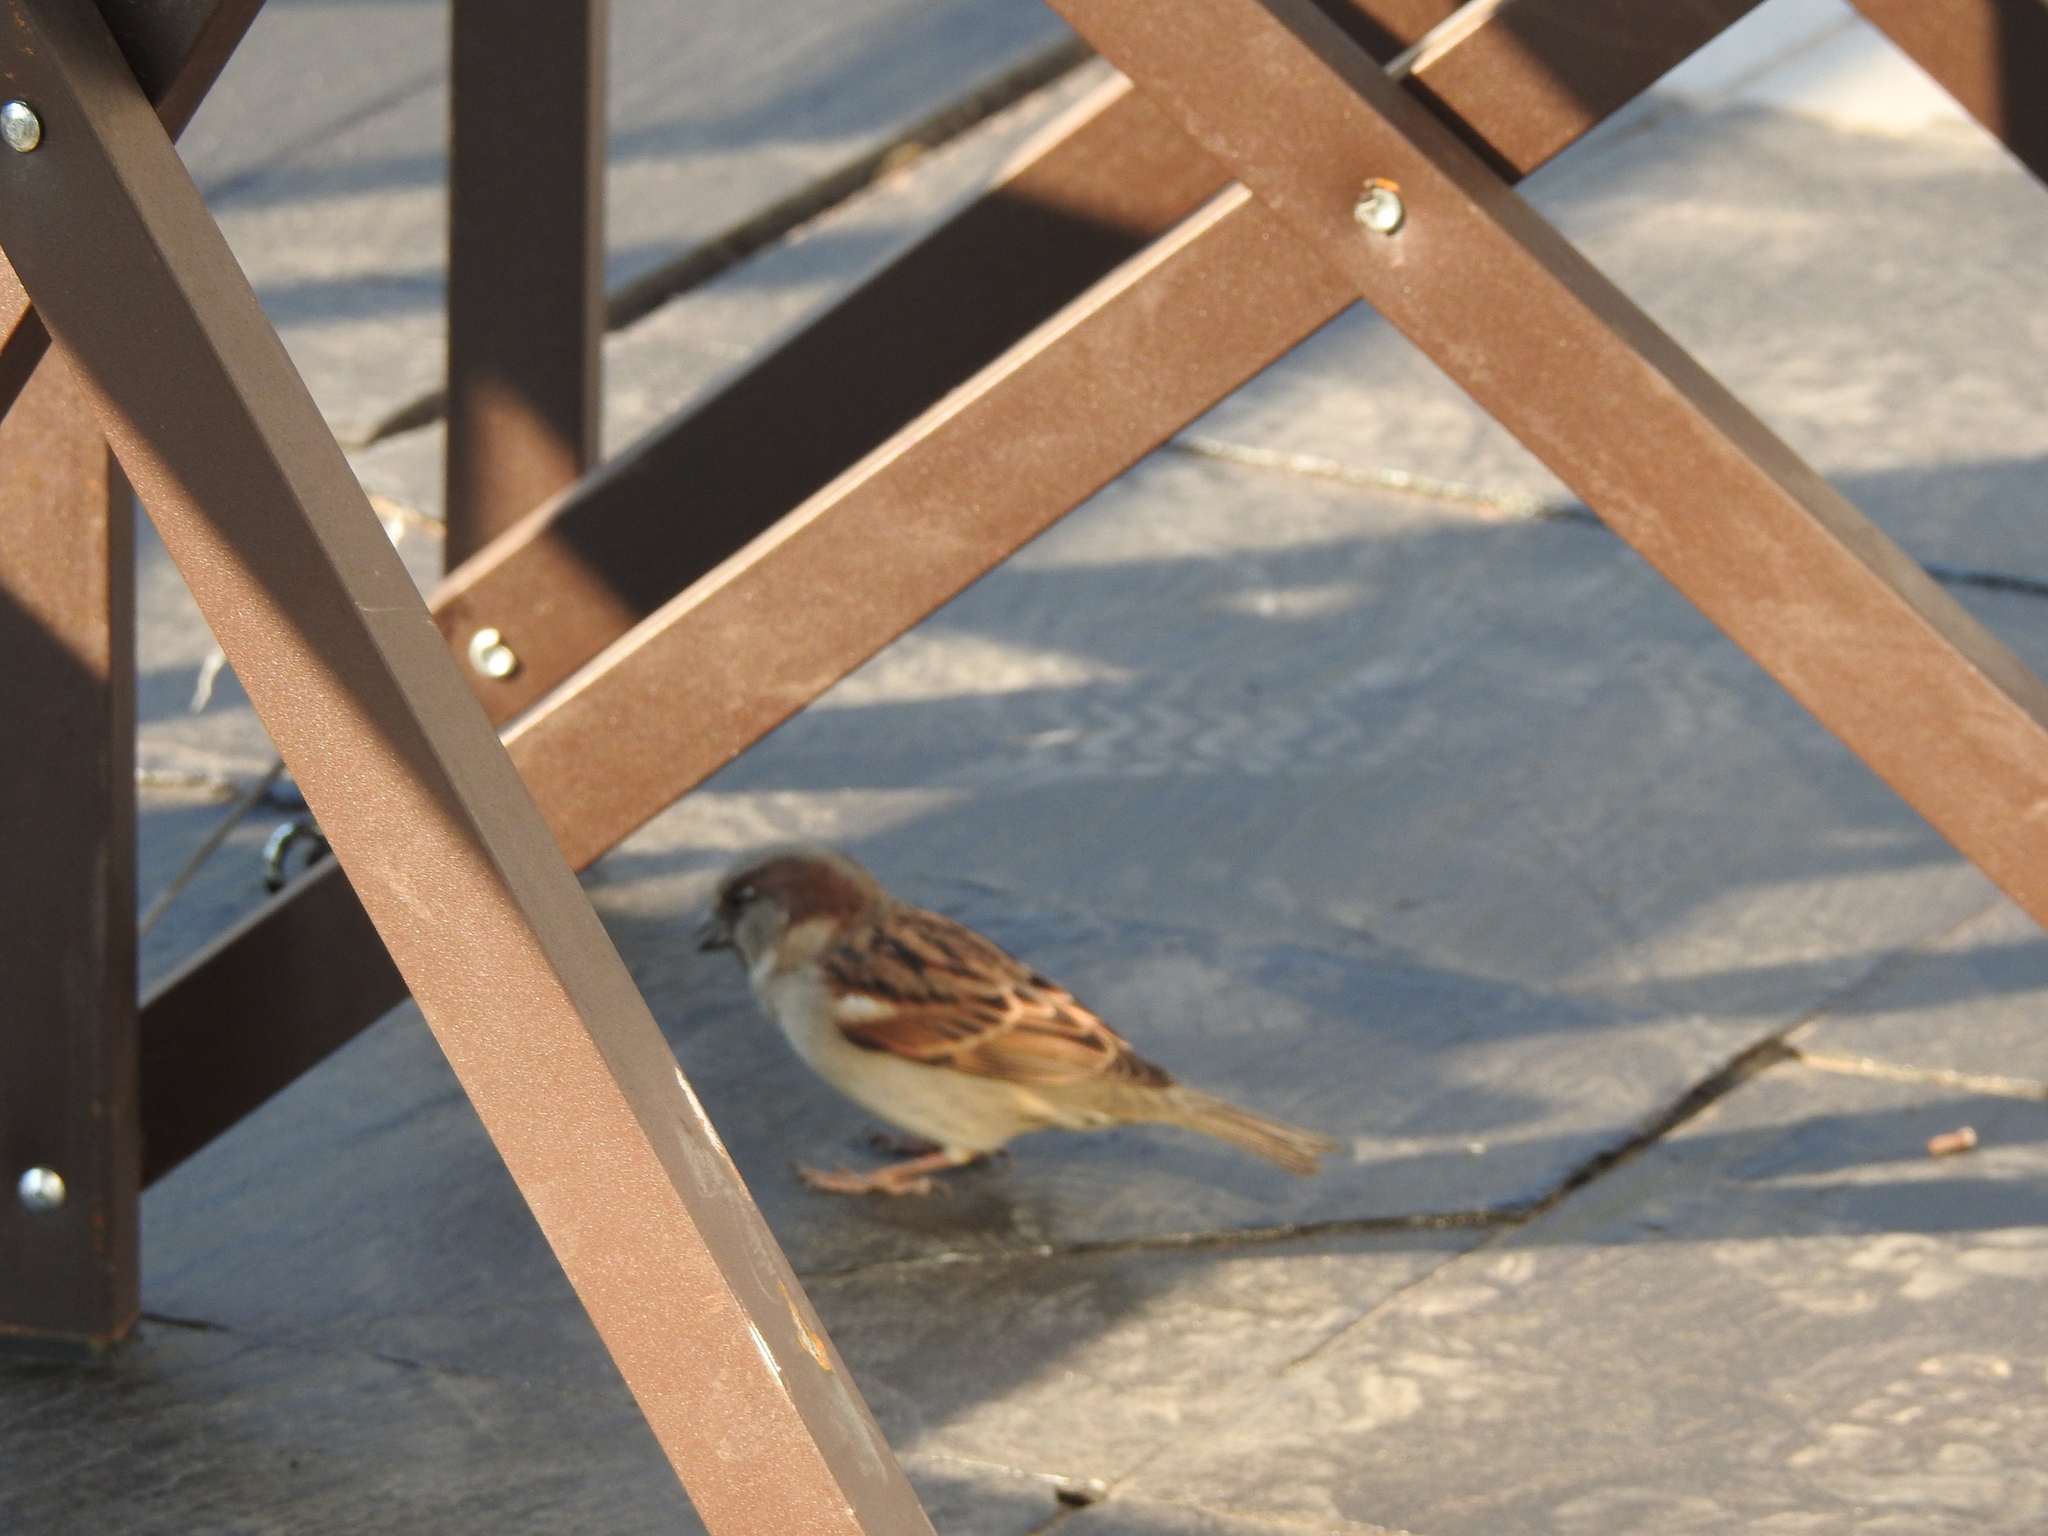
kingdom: Animalia
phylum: Chordata
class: Aves
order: Passeriformes
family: Passeridae
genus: Passer
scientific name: Passer domesticus
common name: House sparrow
